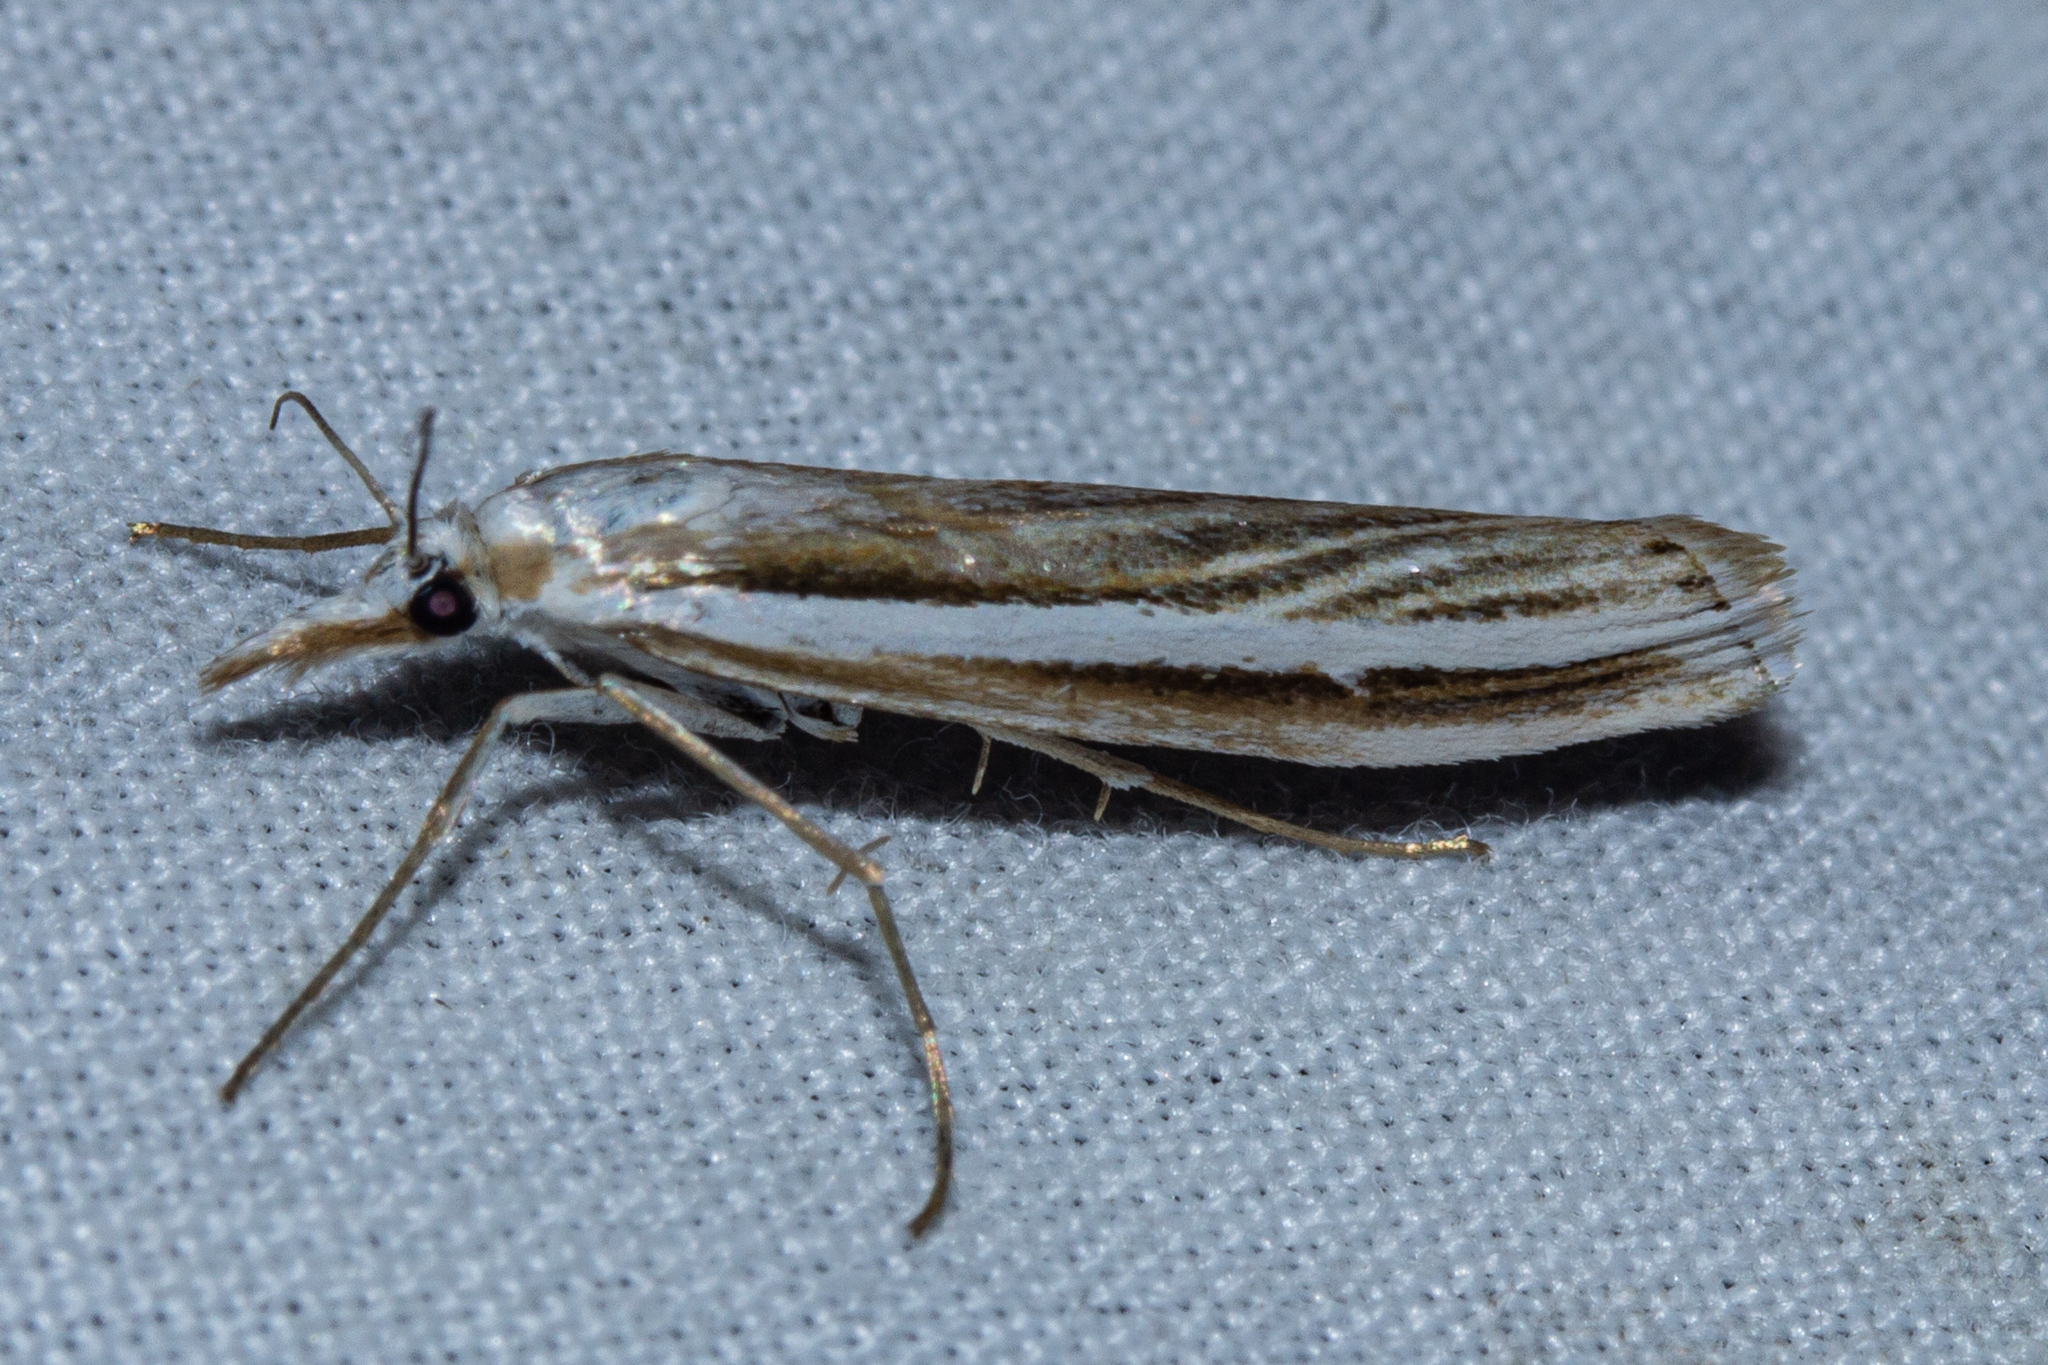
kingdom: Animalia
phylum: Arthropoda
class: Insecta
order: Lepidoptera
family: Crambidae
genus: Orocrambus
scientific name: Orocrambus vittellus
